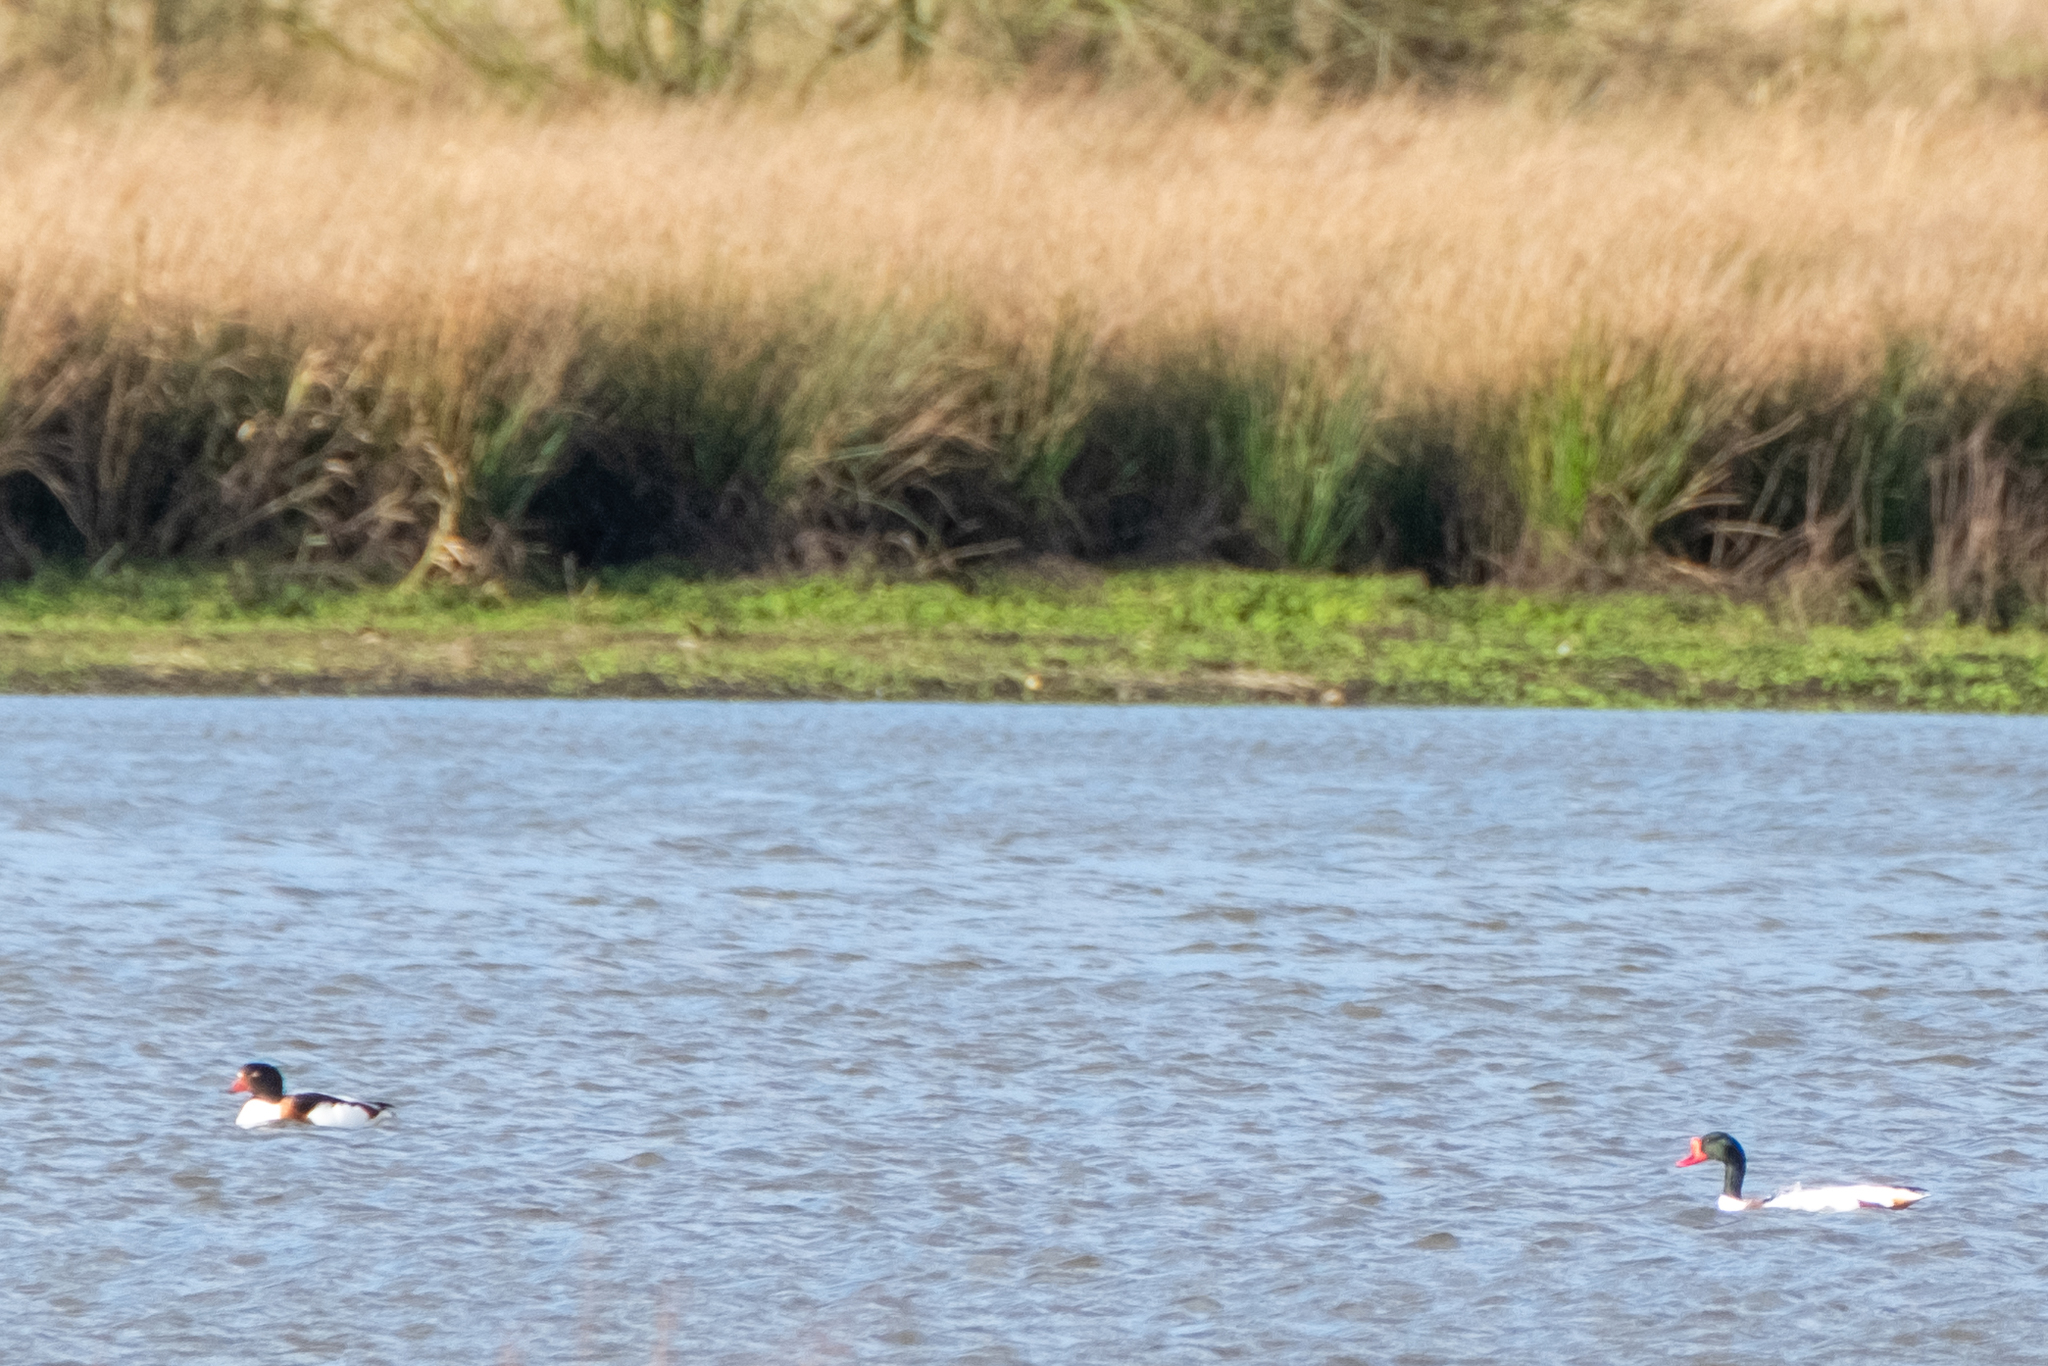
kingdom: Animalia
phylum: Chordata
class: Aves
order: Anseriformes
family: Anatidae
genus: Tadorna
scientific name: Tadorna tadorna
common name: Common shelduck
